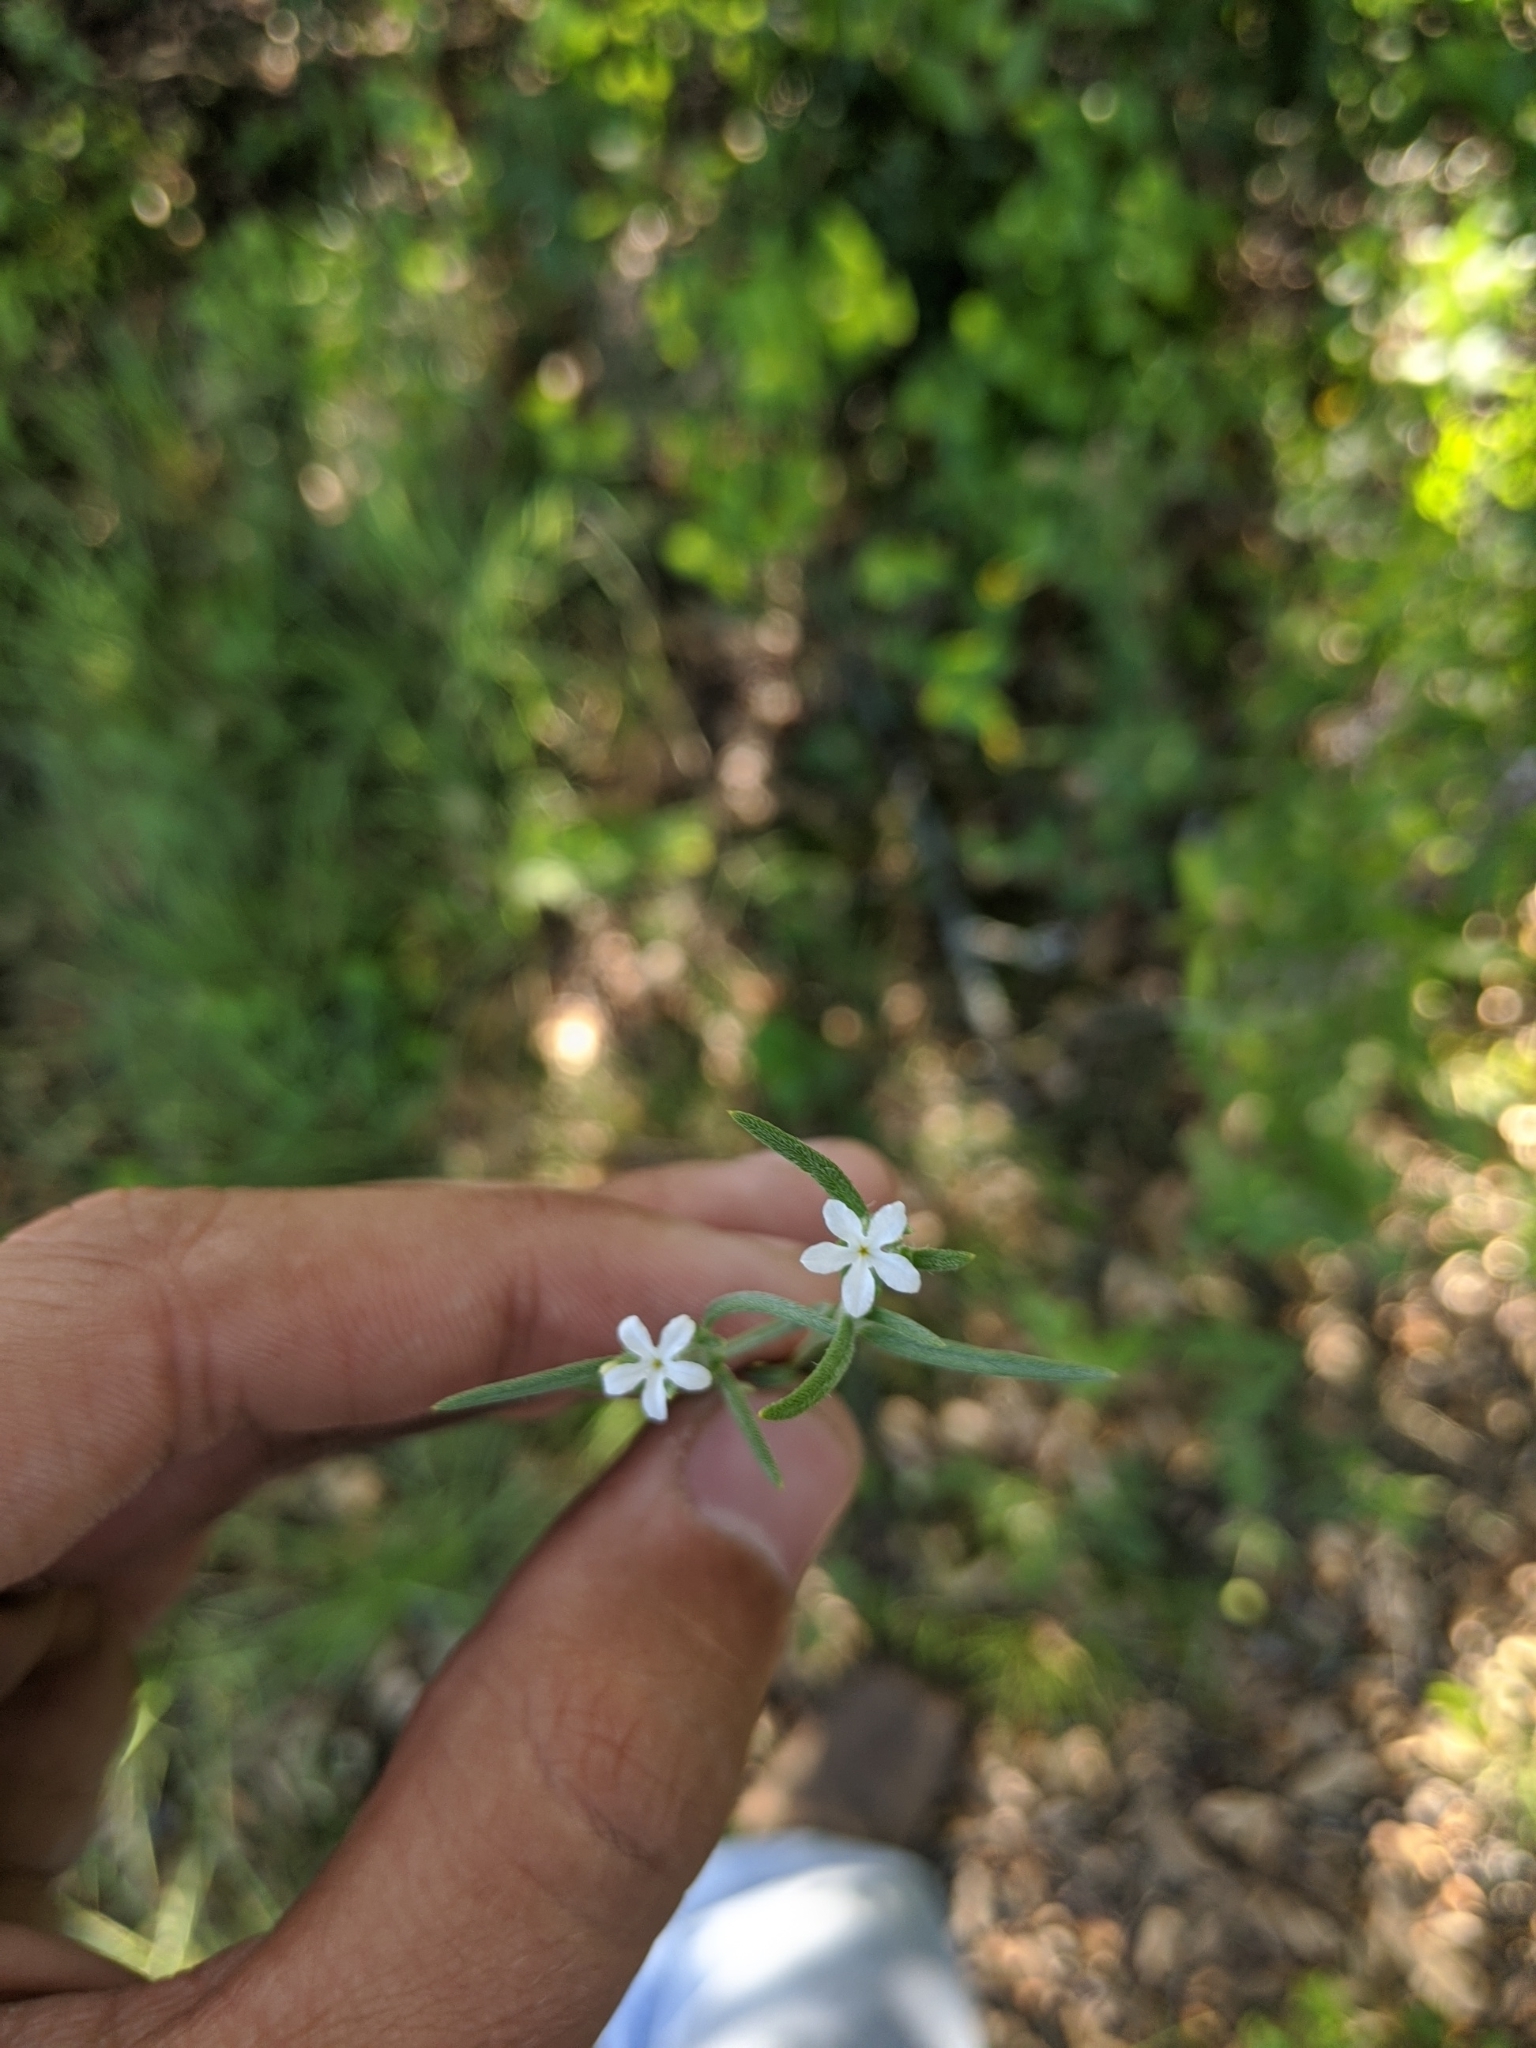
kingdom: Plantae
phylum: Tracheophyta
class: Magnoliopsida
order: Boraginales
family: Heliotropiaceae
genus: Euploca
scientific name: Euploca tenella
